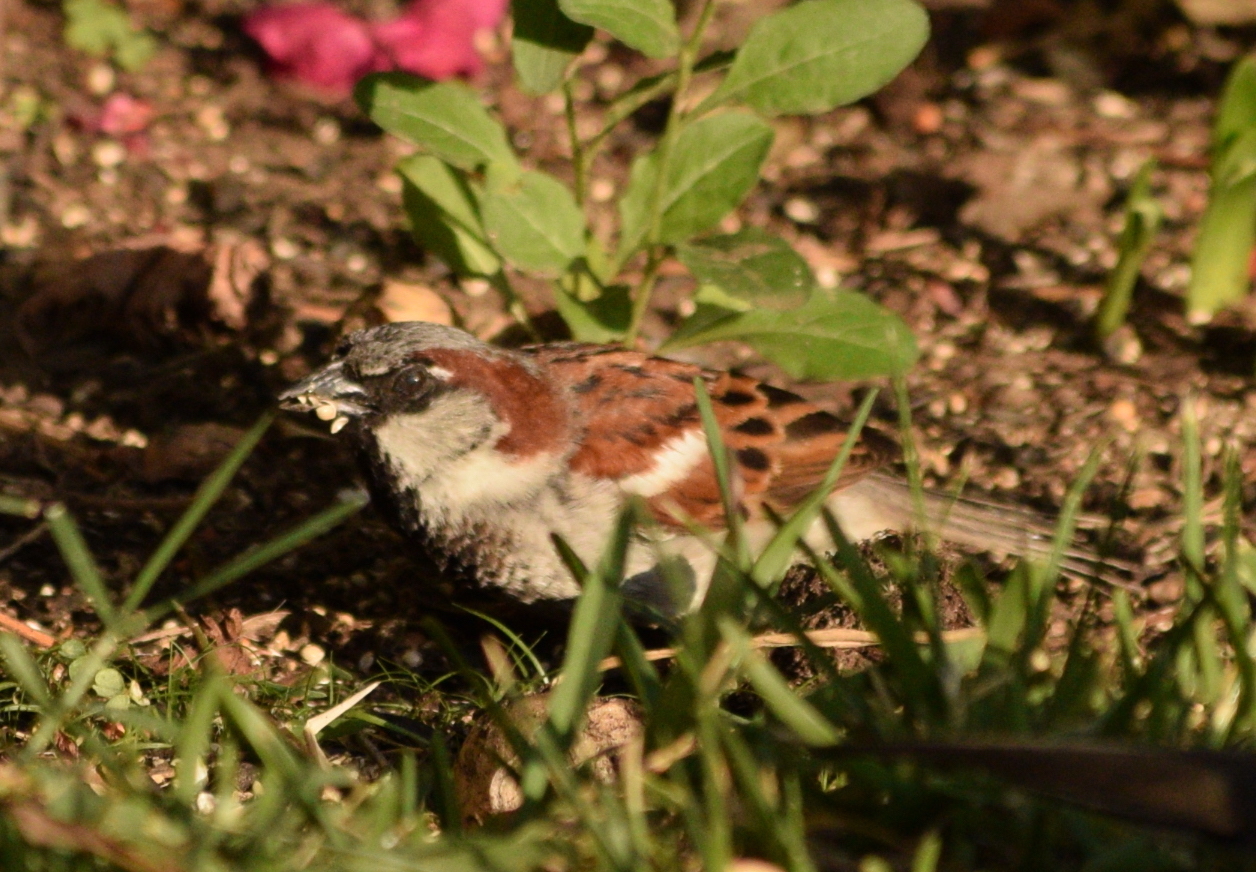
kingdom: Animalia
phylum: Chordata
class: Aves
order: Passeriformes
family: Passeridae
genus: Passer
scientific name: Passer domesticus
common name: House sparrow
